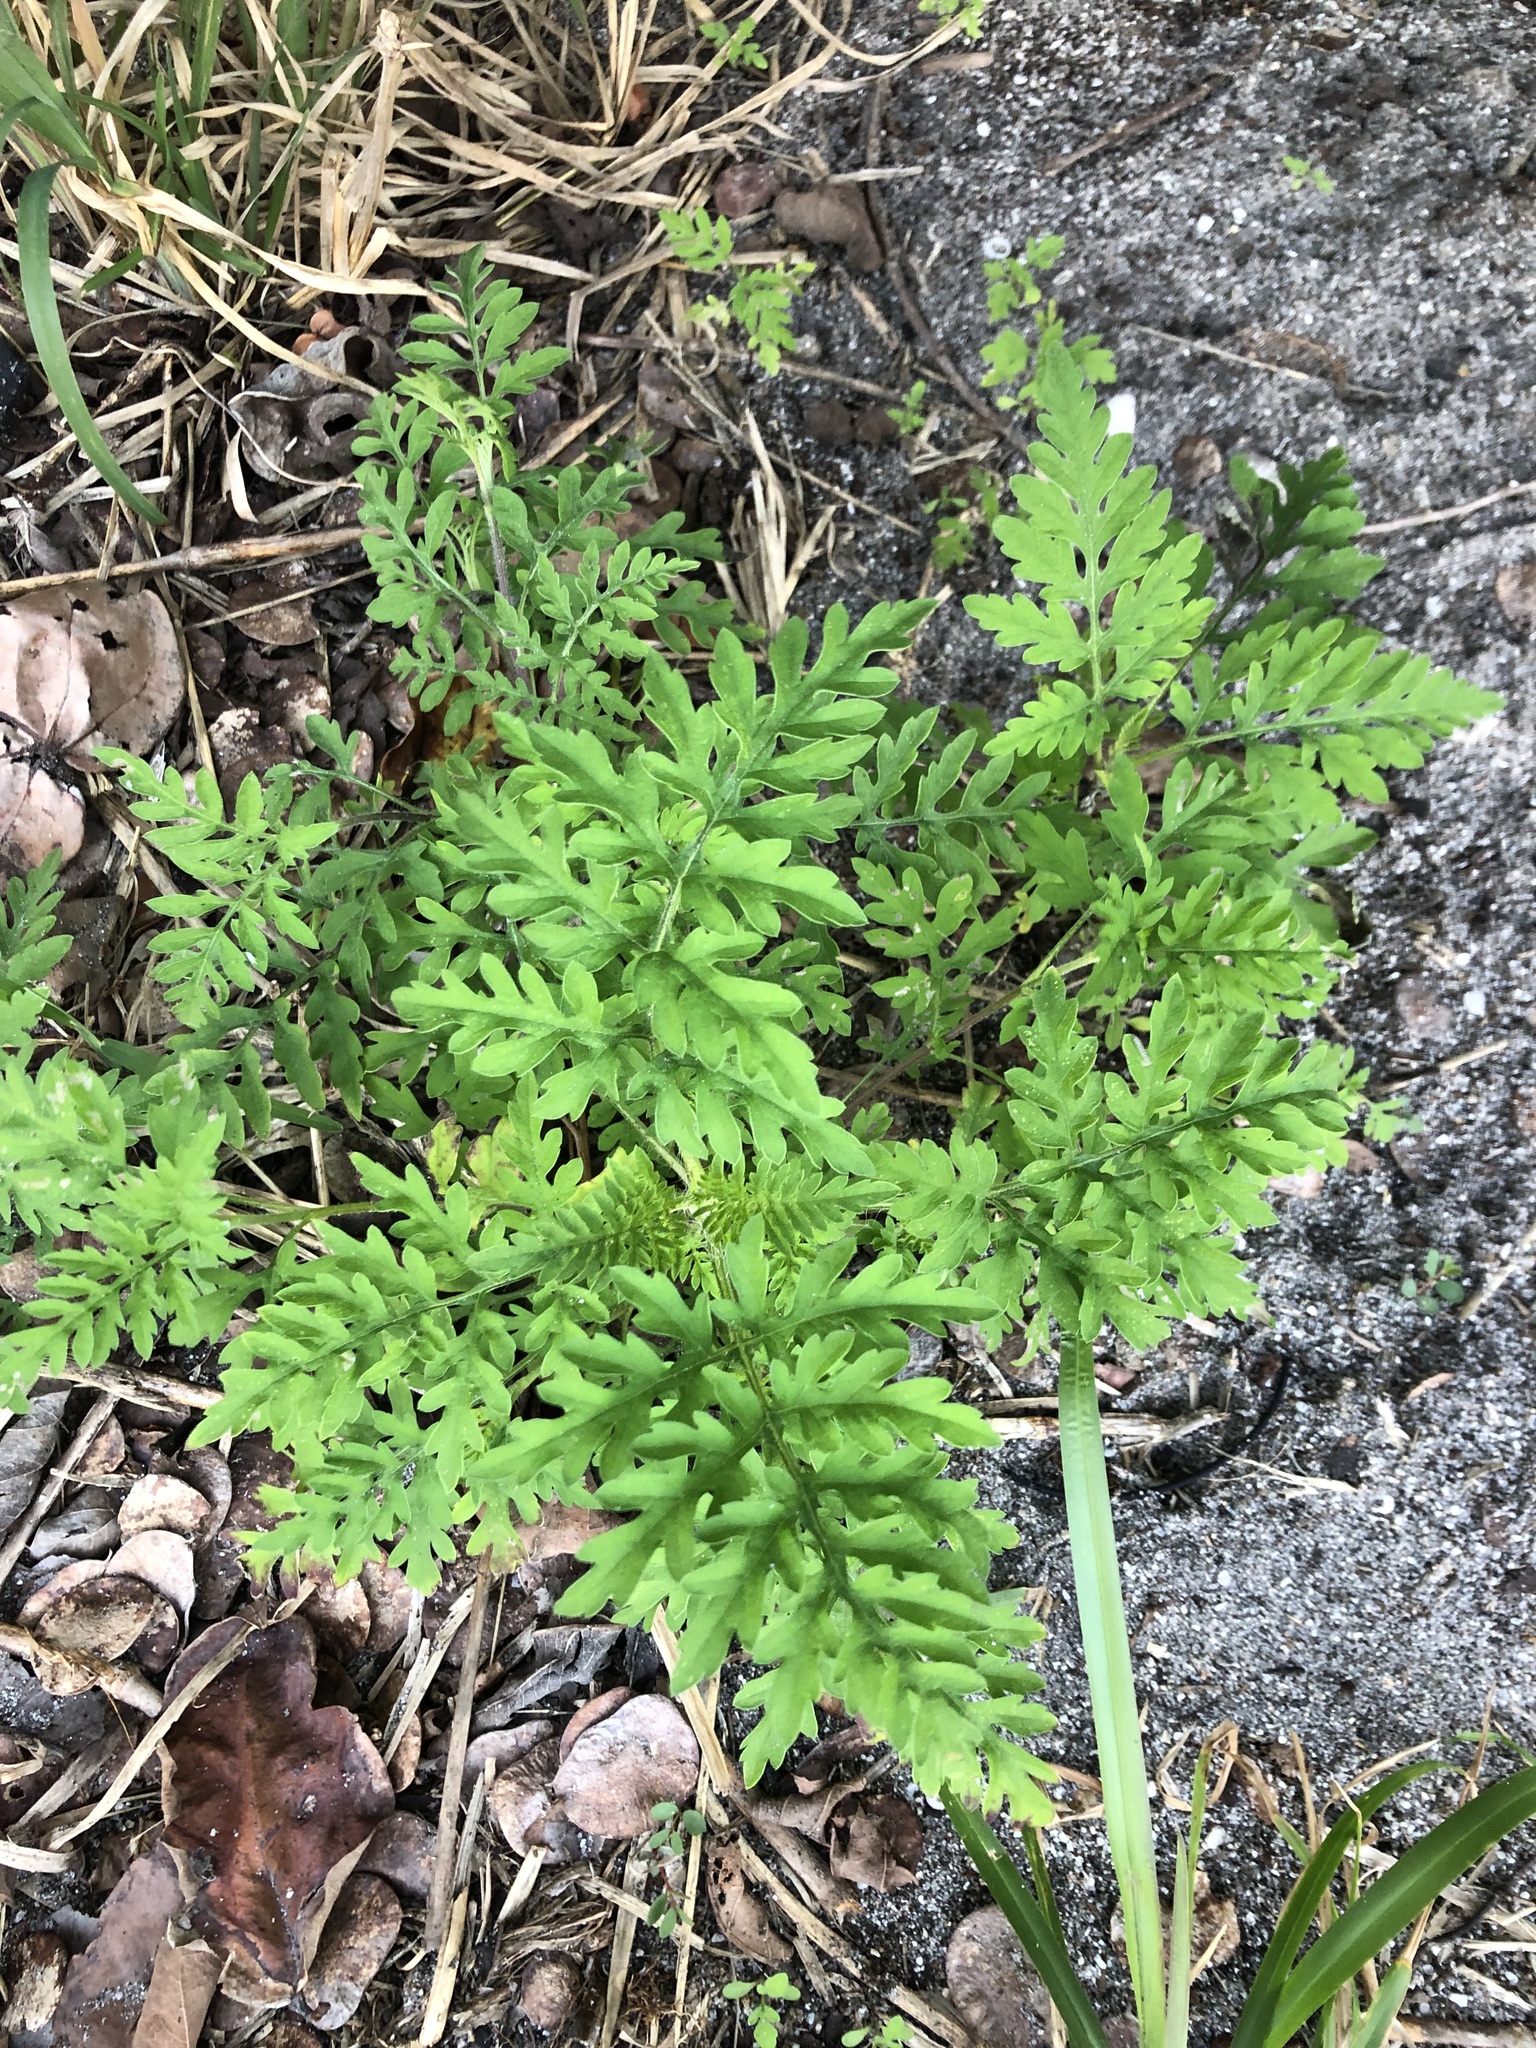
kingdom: Plantae
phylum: Tracheophyta
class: Magnoliopsida
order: Asterales
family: Asteraceae
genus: Ambrosia
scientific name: Ambrosia artemisiifolia
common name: Annual ragweed
